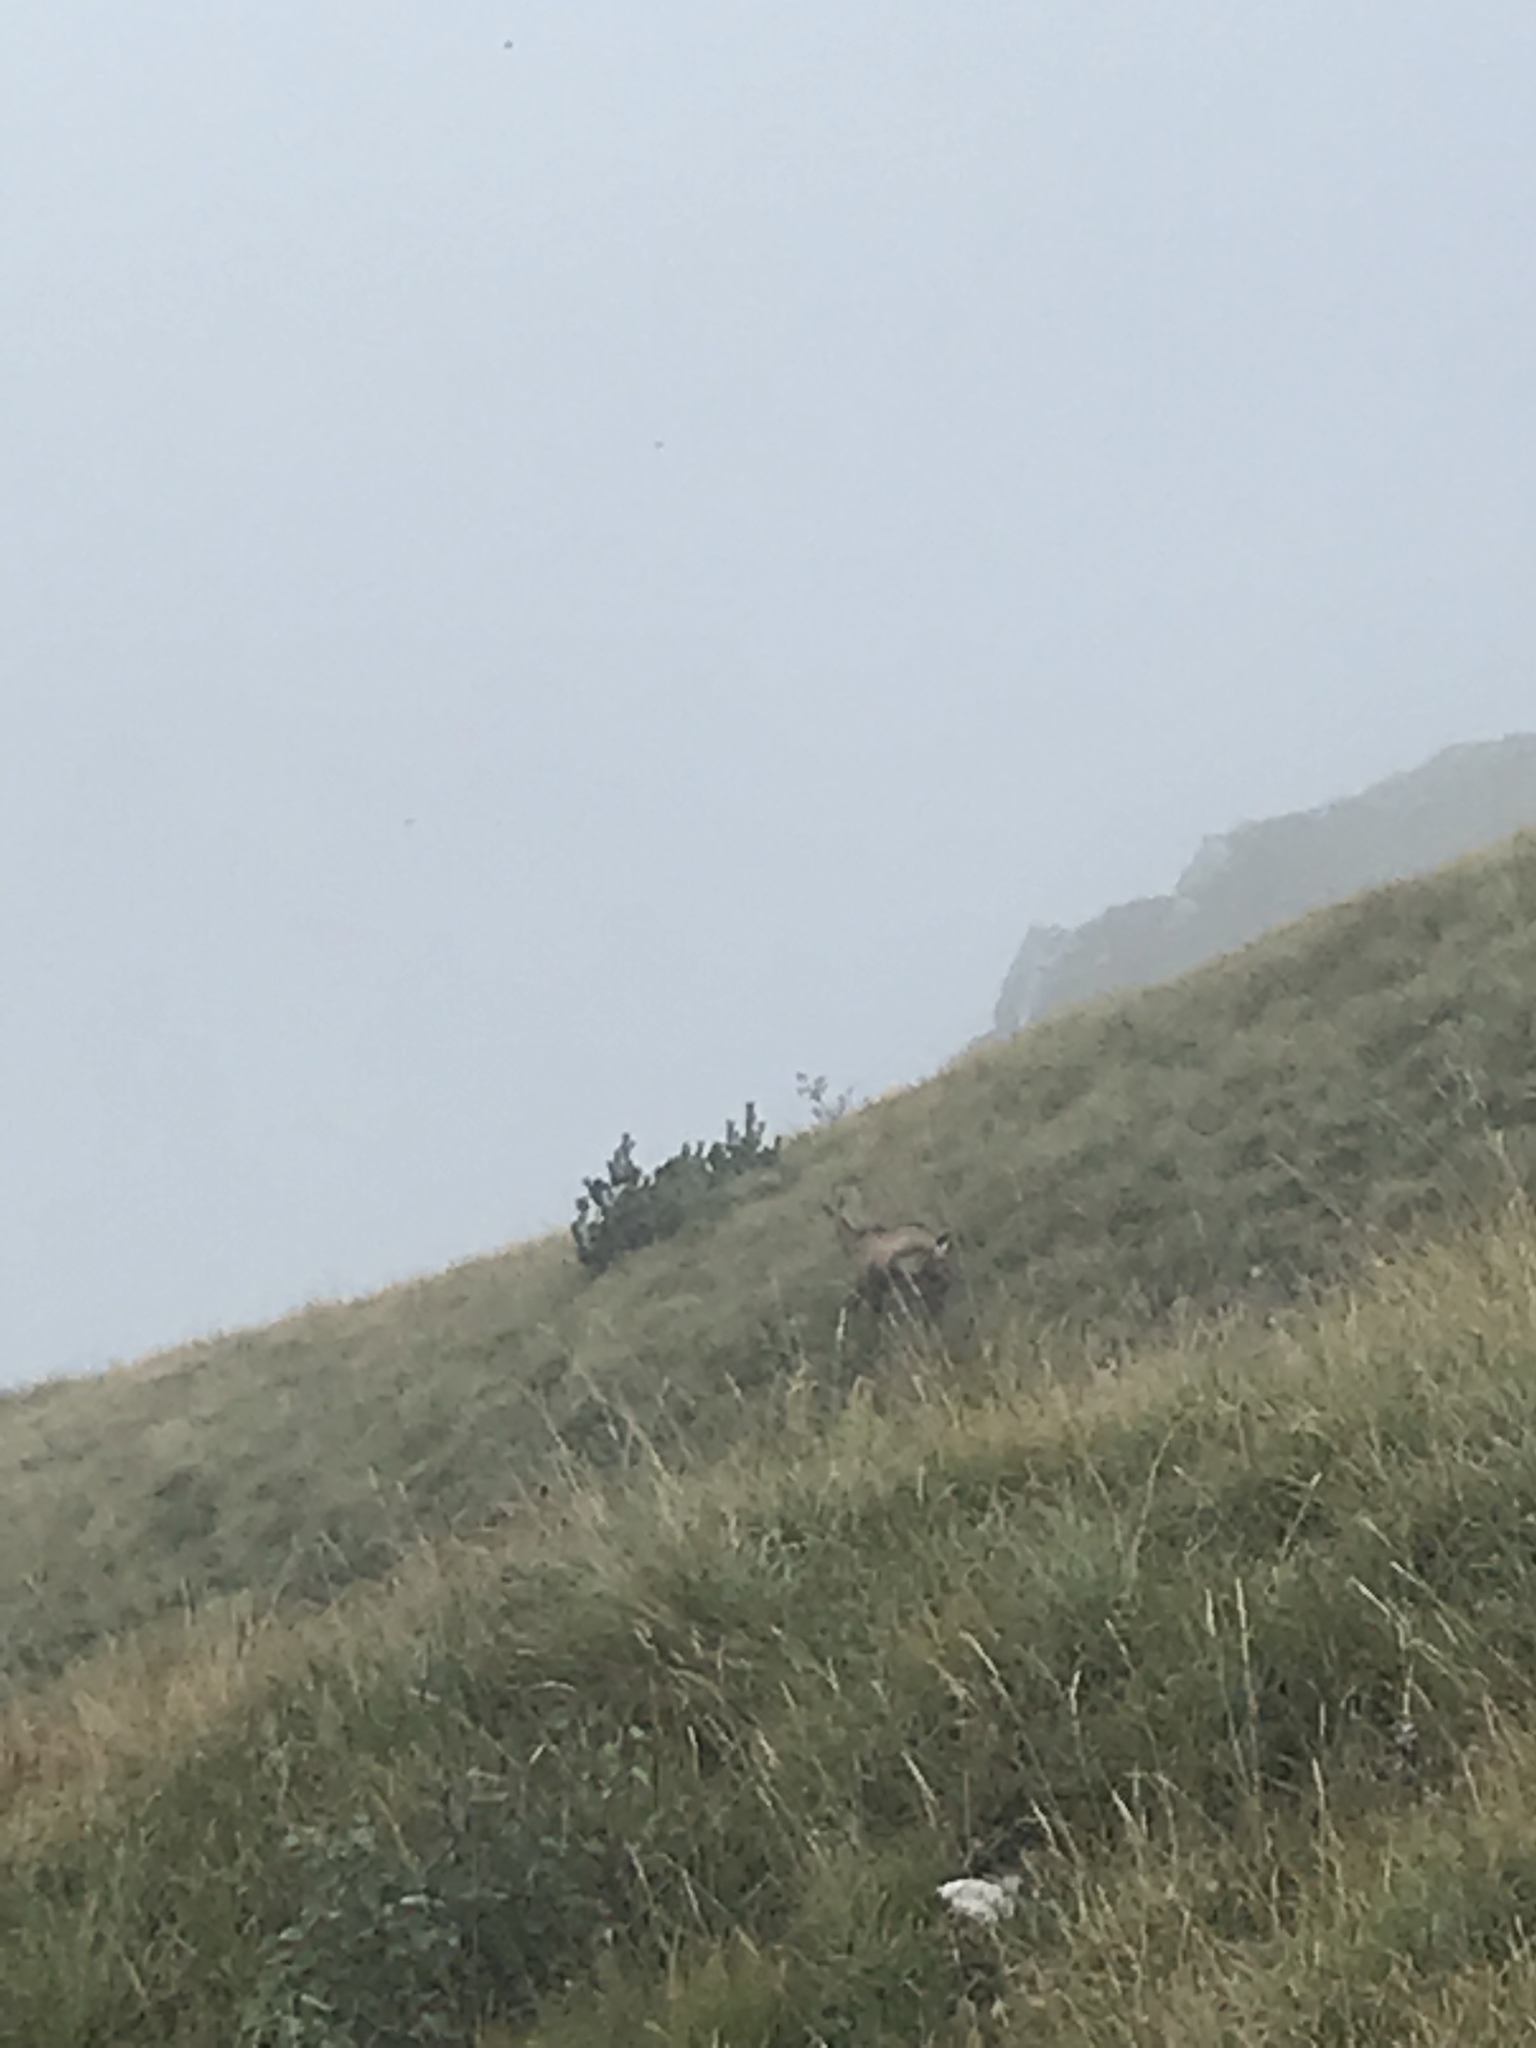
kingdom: Animalia
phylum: Chordata
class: Mammalia
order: Artiodactyla
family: Bovidae
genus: Rupicapra
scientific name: Rupicapra rupicapra
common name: Chamois
